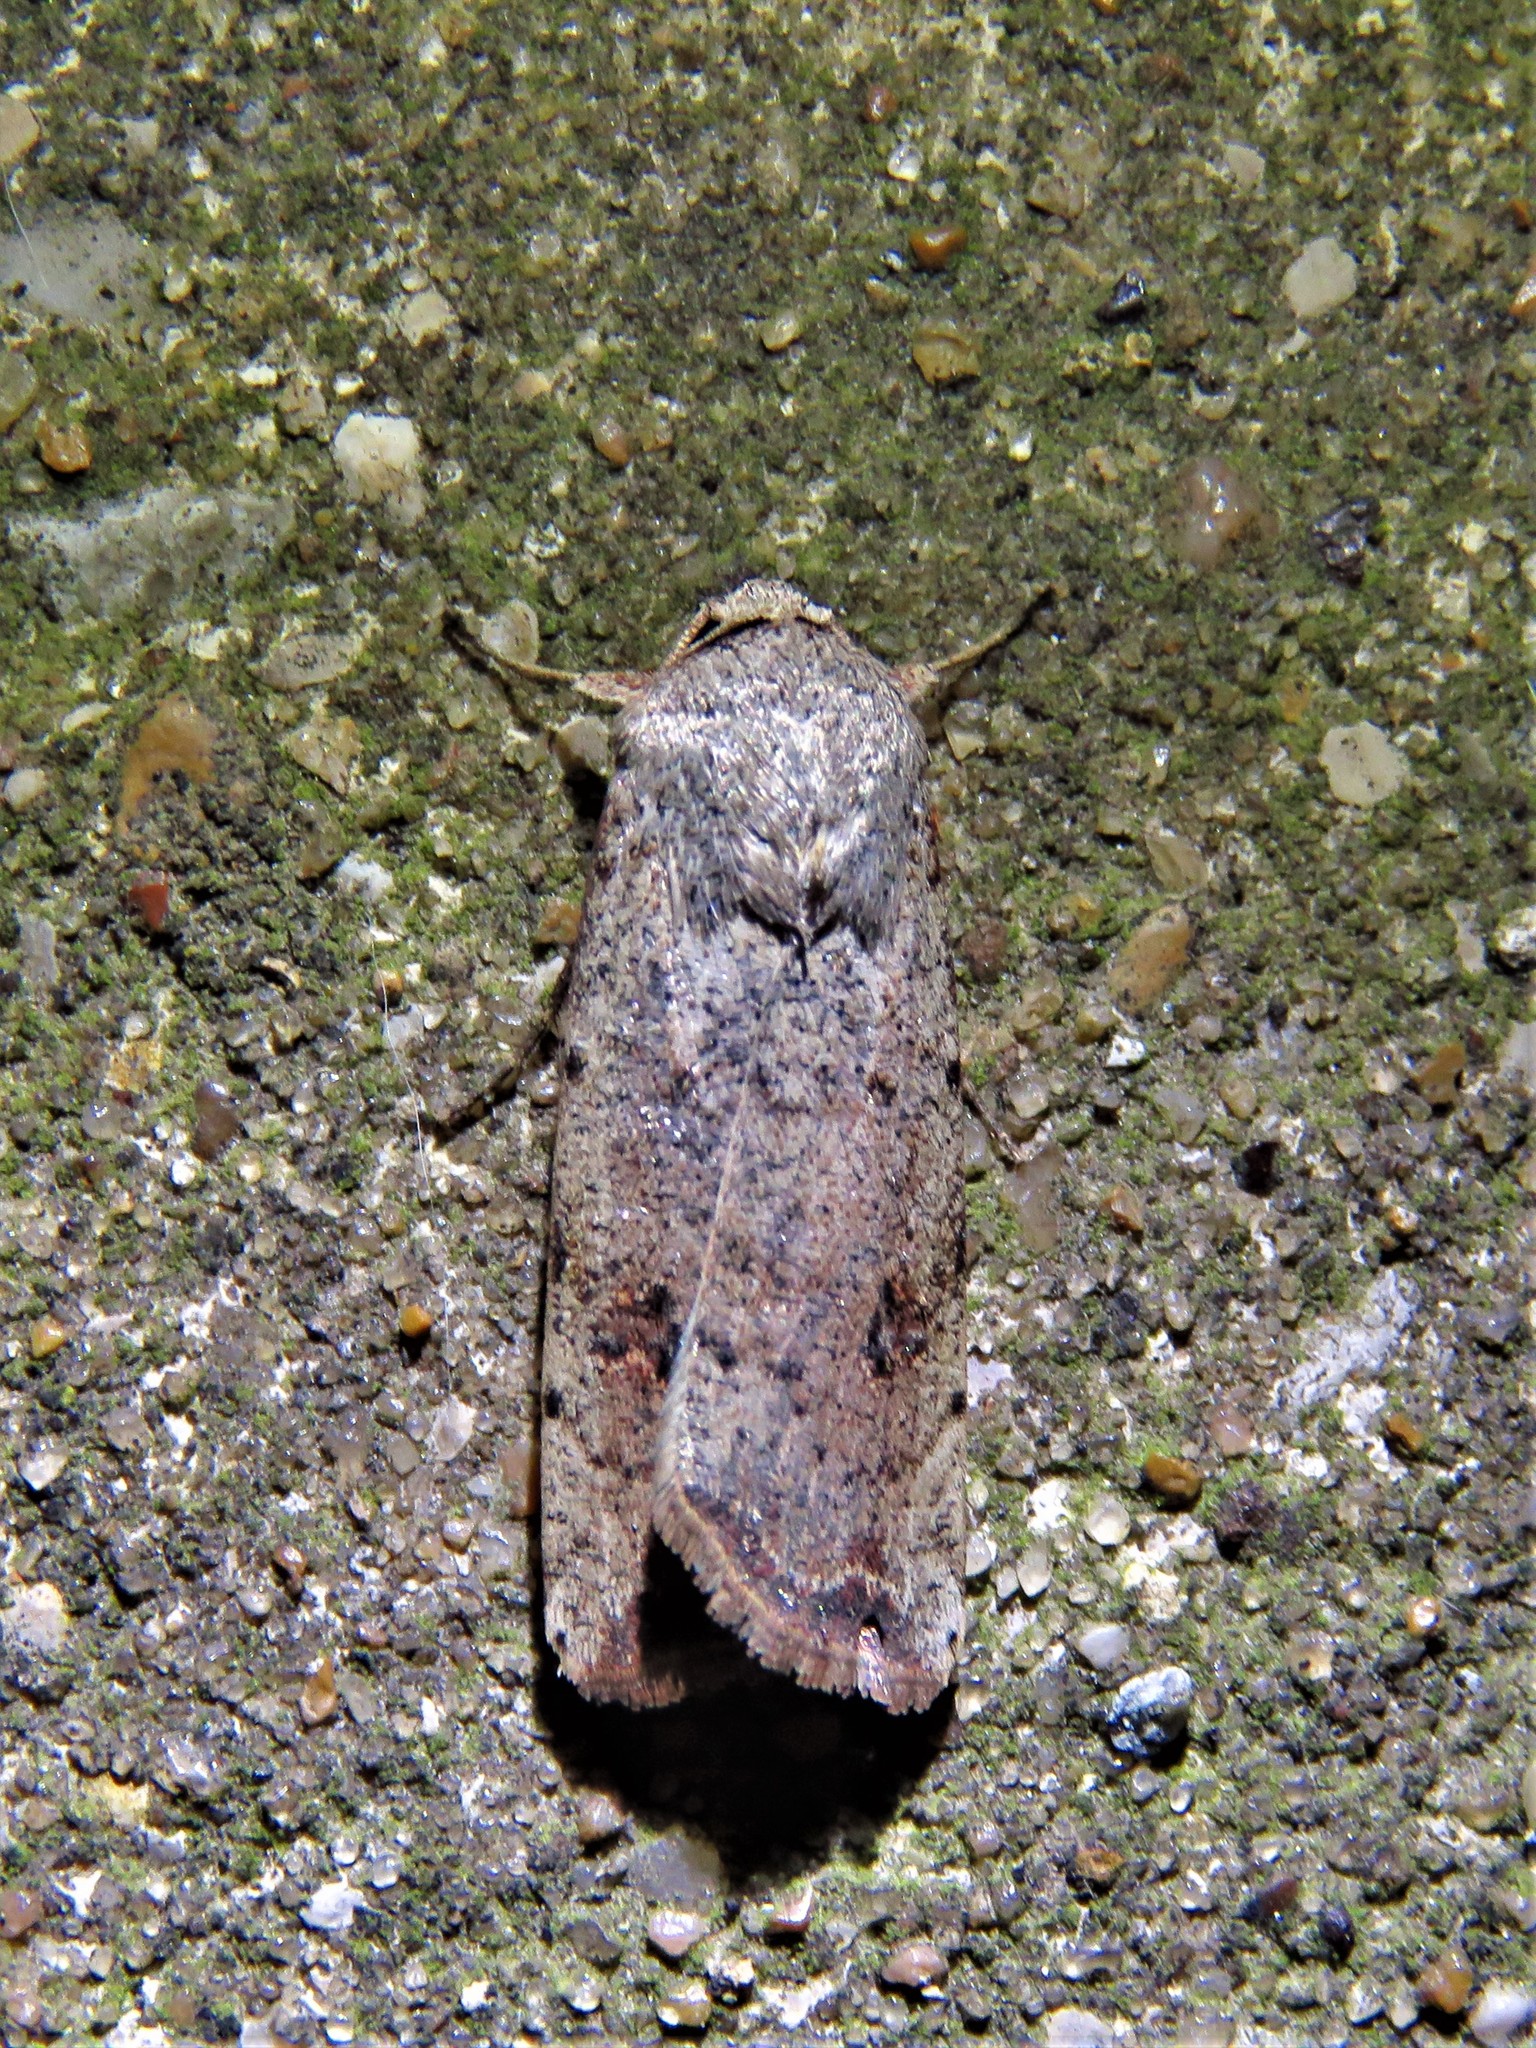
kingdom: Animalia
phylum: Arthropoda
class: Insecta
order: Lepidoptera
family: Noctuidae
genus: Anicla
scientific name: Anicla infecta
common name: Green cutworm
